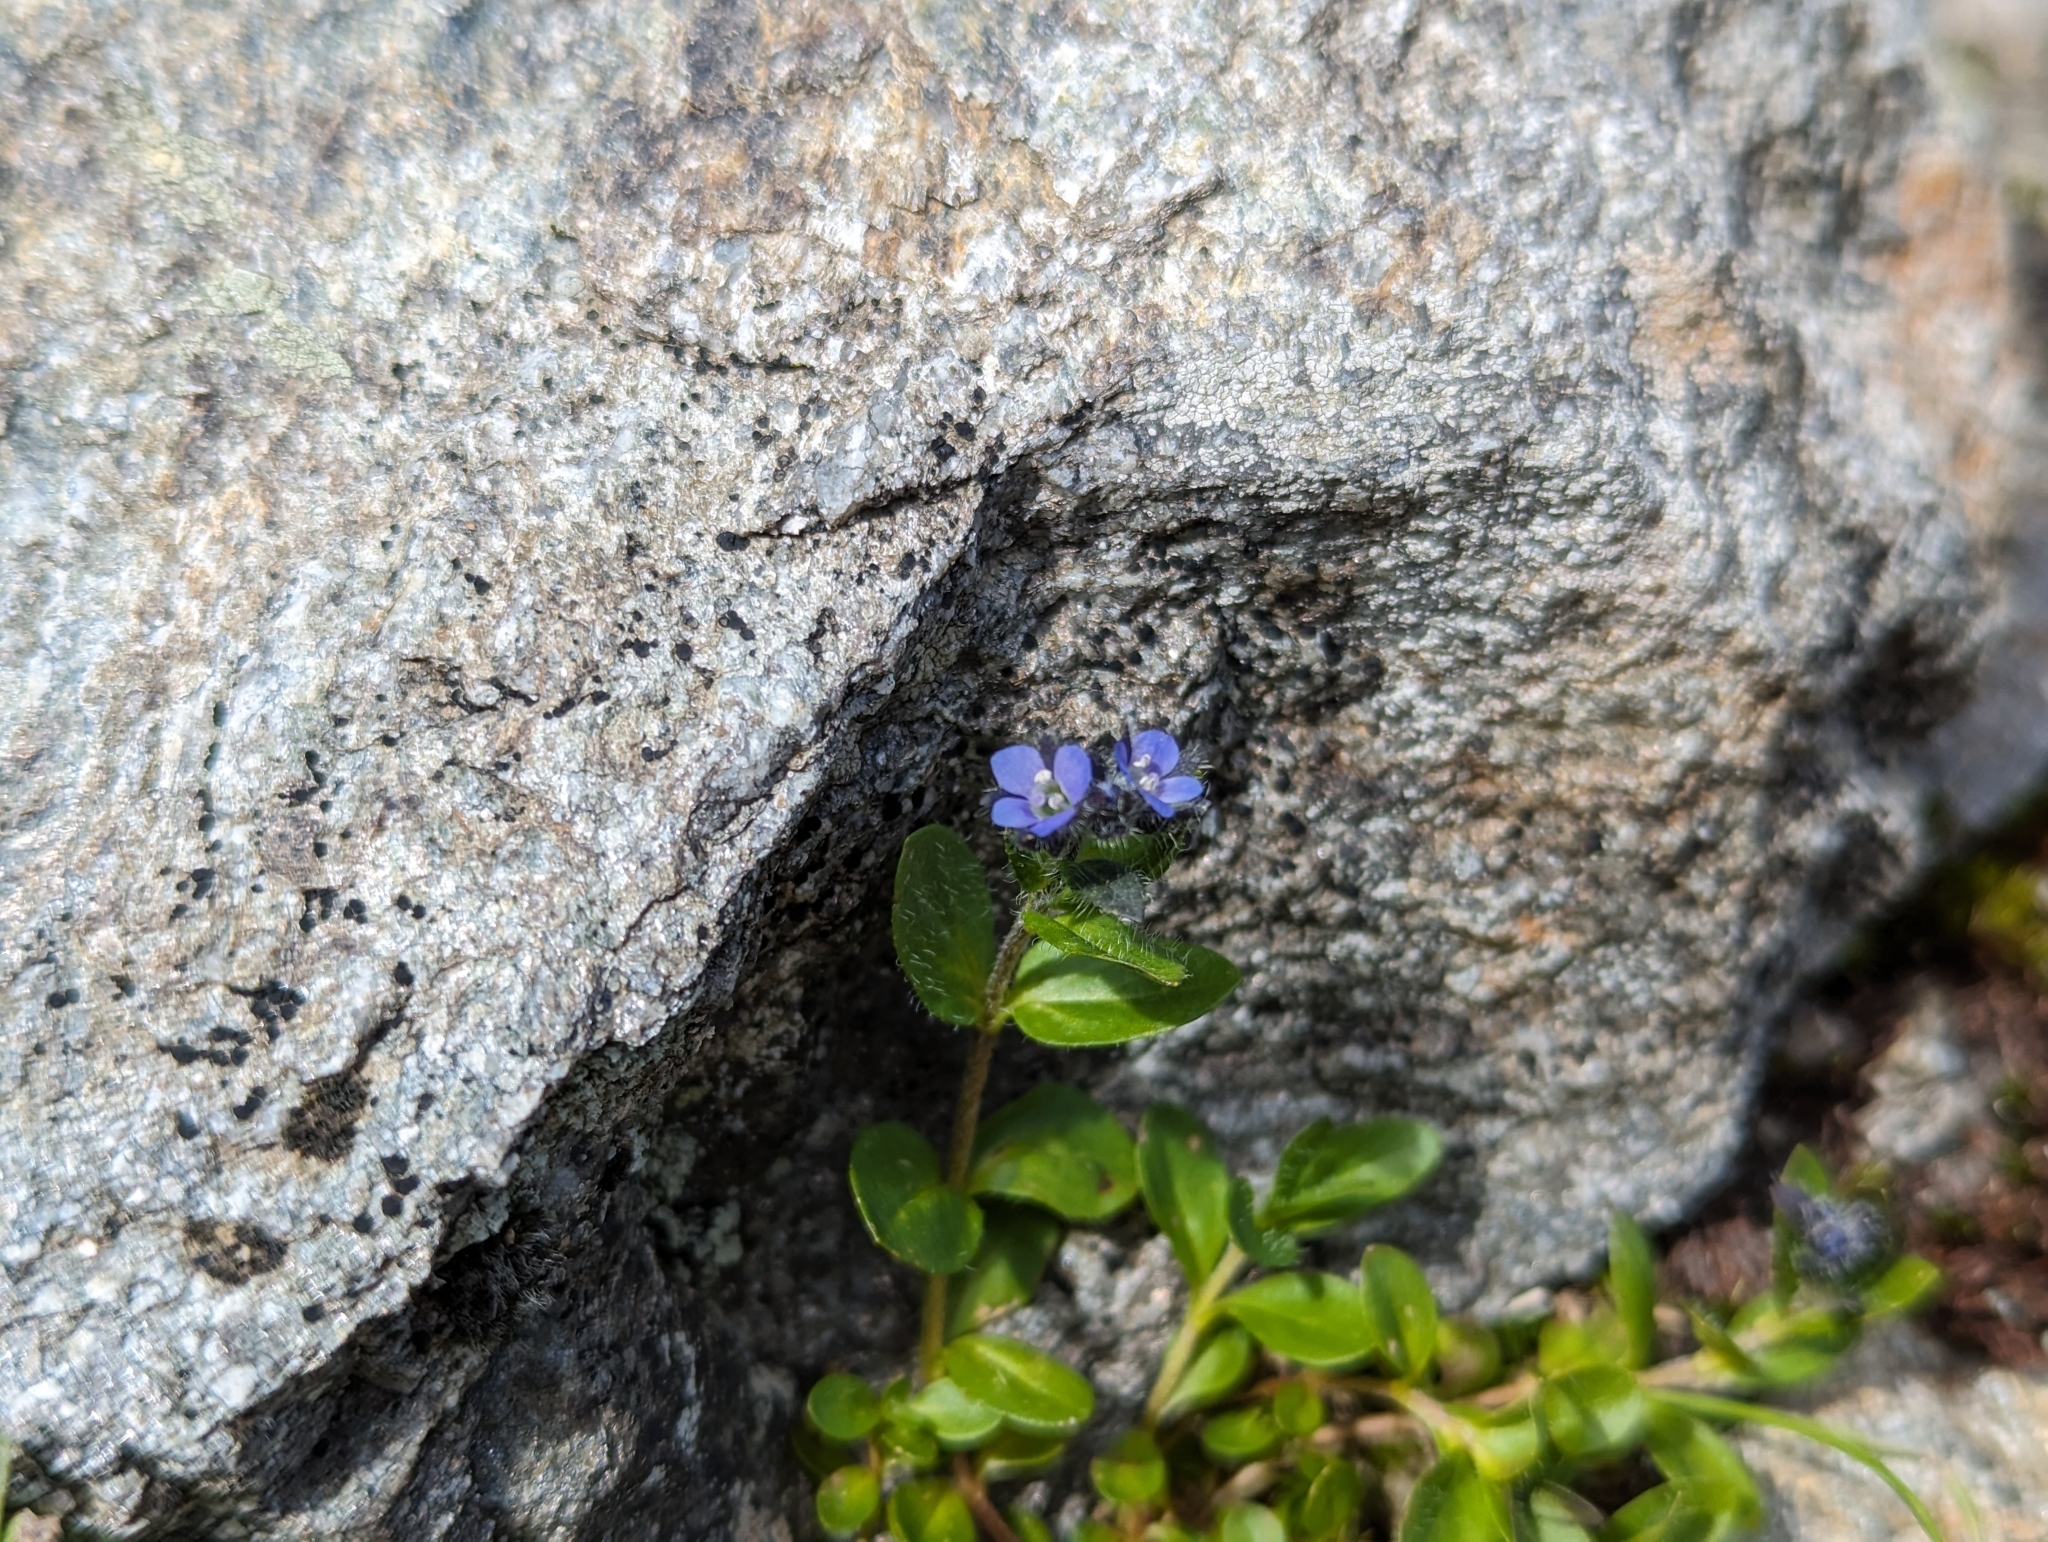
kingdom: Plantae
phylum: Tracheophyta
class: Magnoliopsida
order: Lamiales
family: Plantaginaceae
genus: Veronica
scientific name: Veronica alpina
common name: Alpine speedwell
